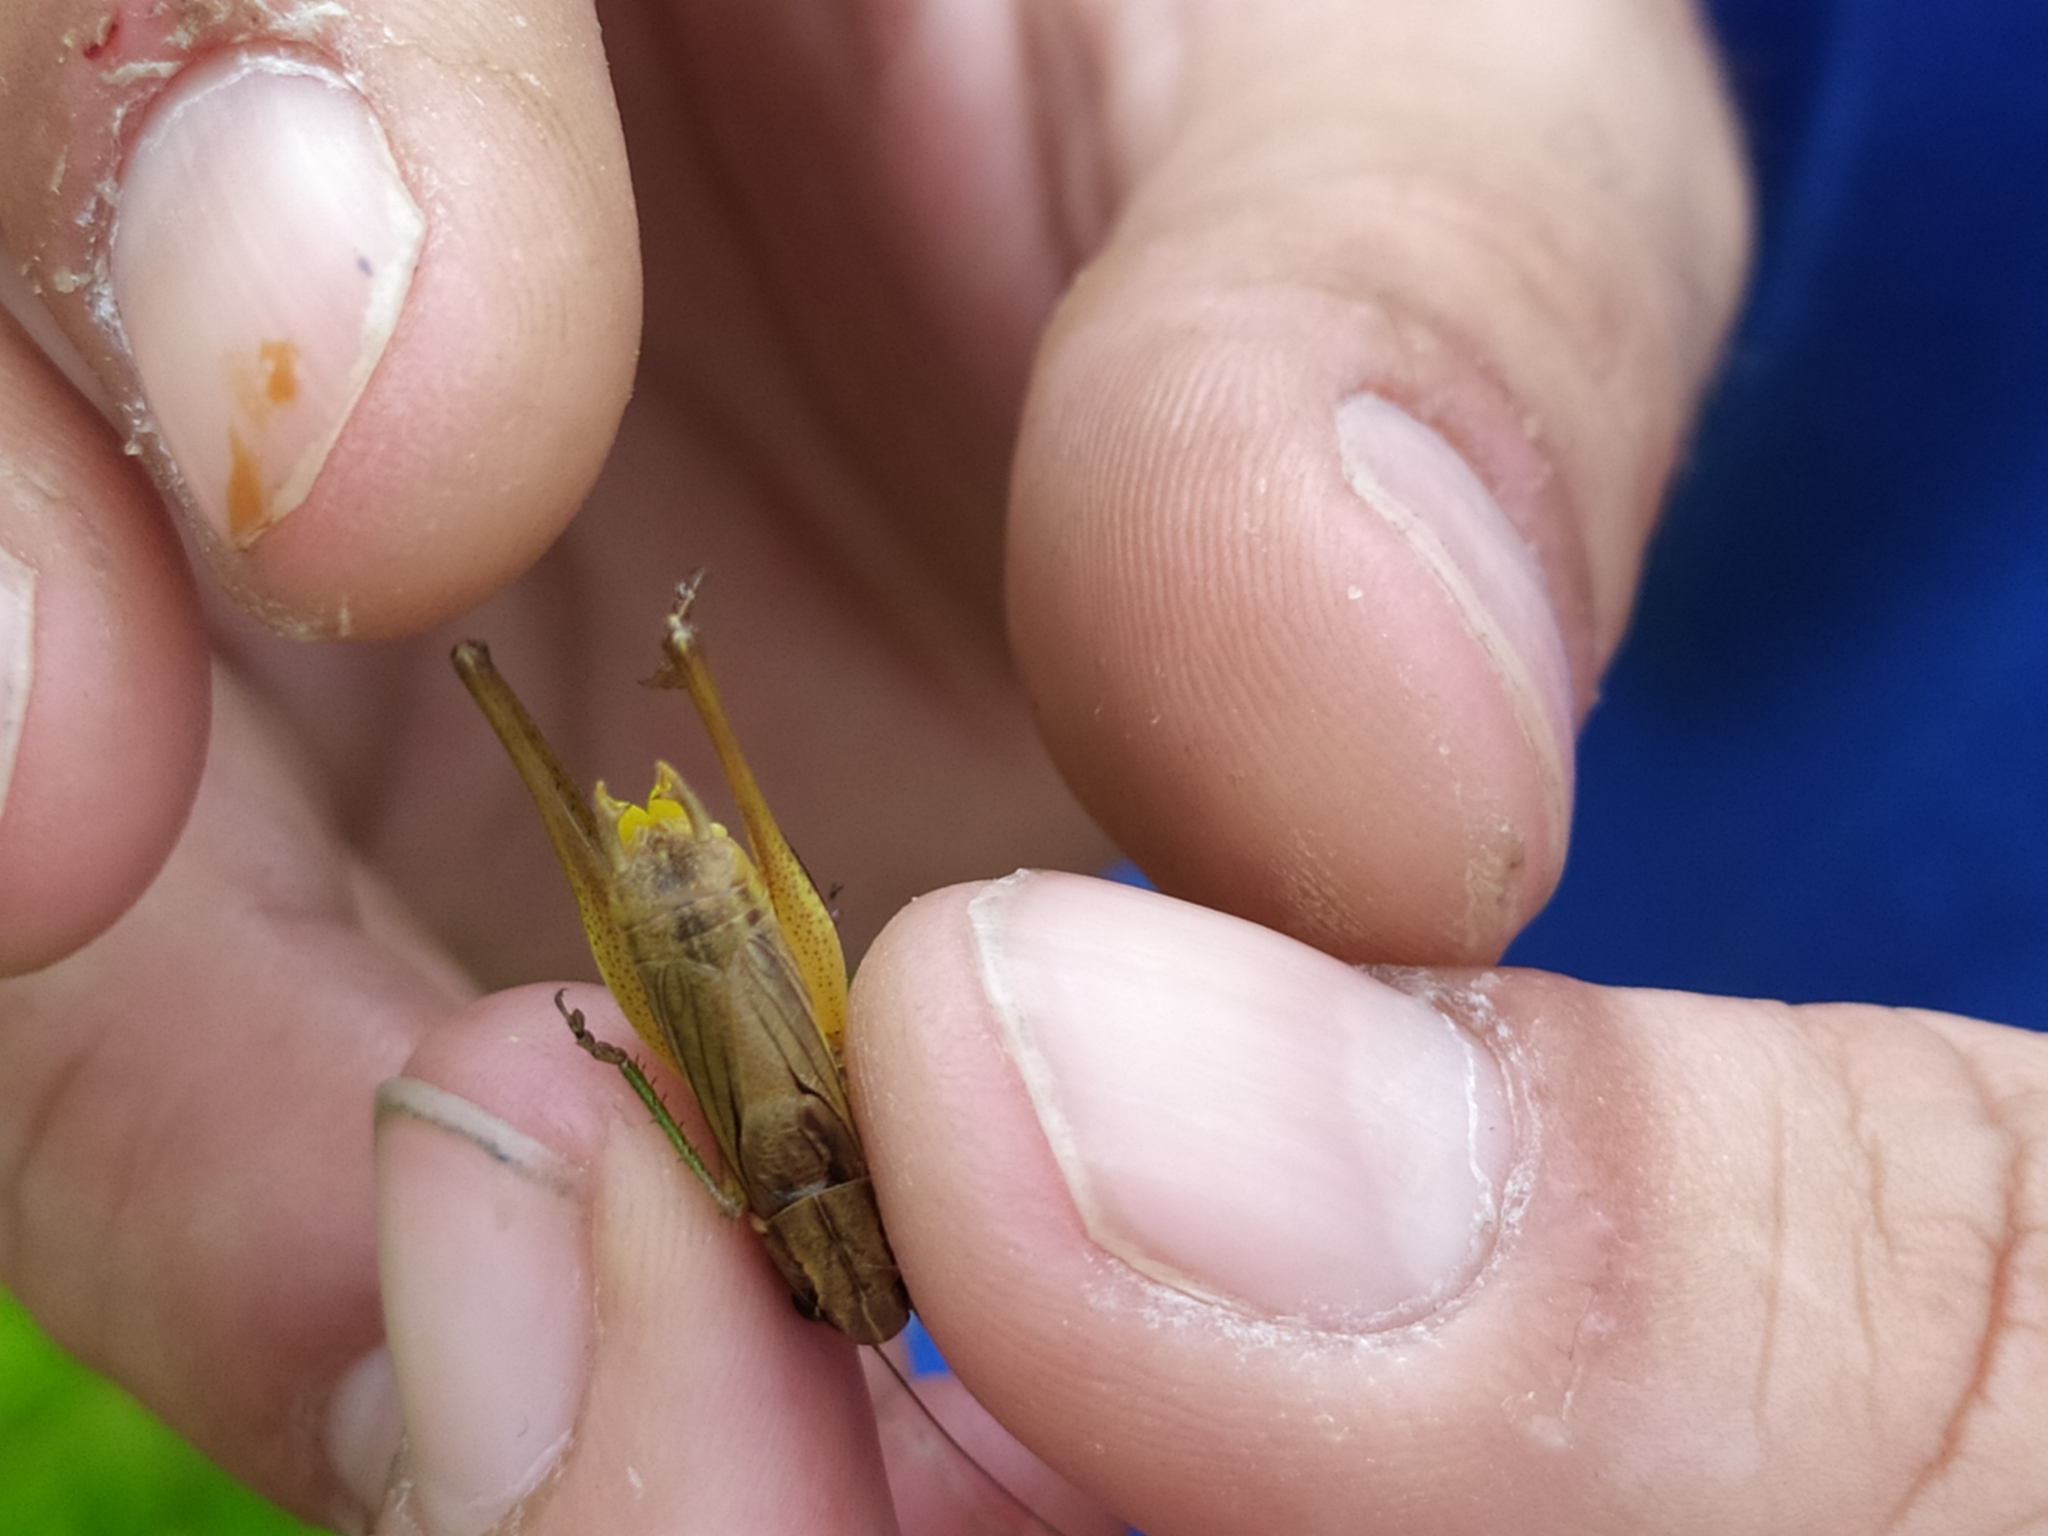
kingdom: Animalia
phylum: Arthropoda
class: Insecta
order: Orthoptera
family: Tettigoniidae
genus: Roeseliana
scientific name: Roeseliana roeselii
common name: Roesel's bush cricket
